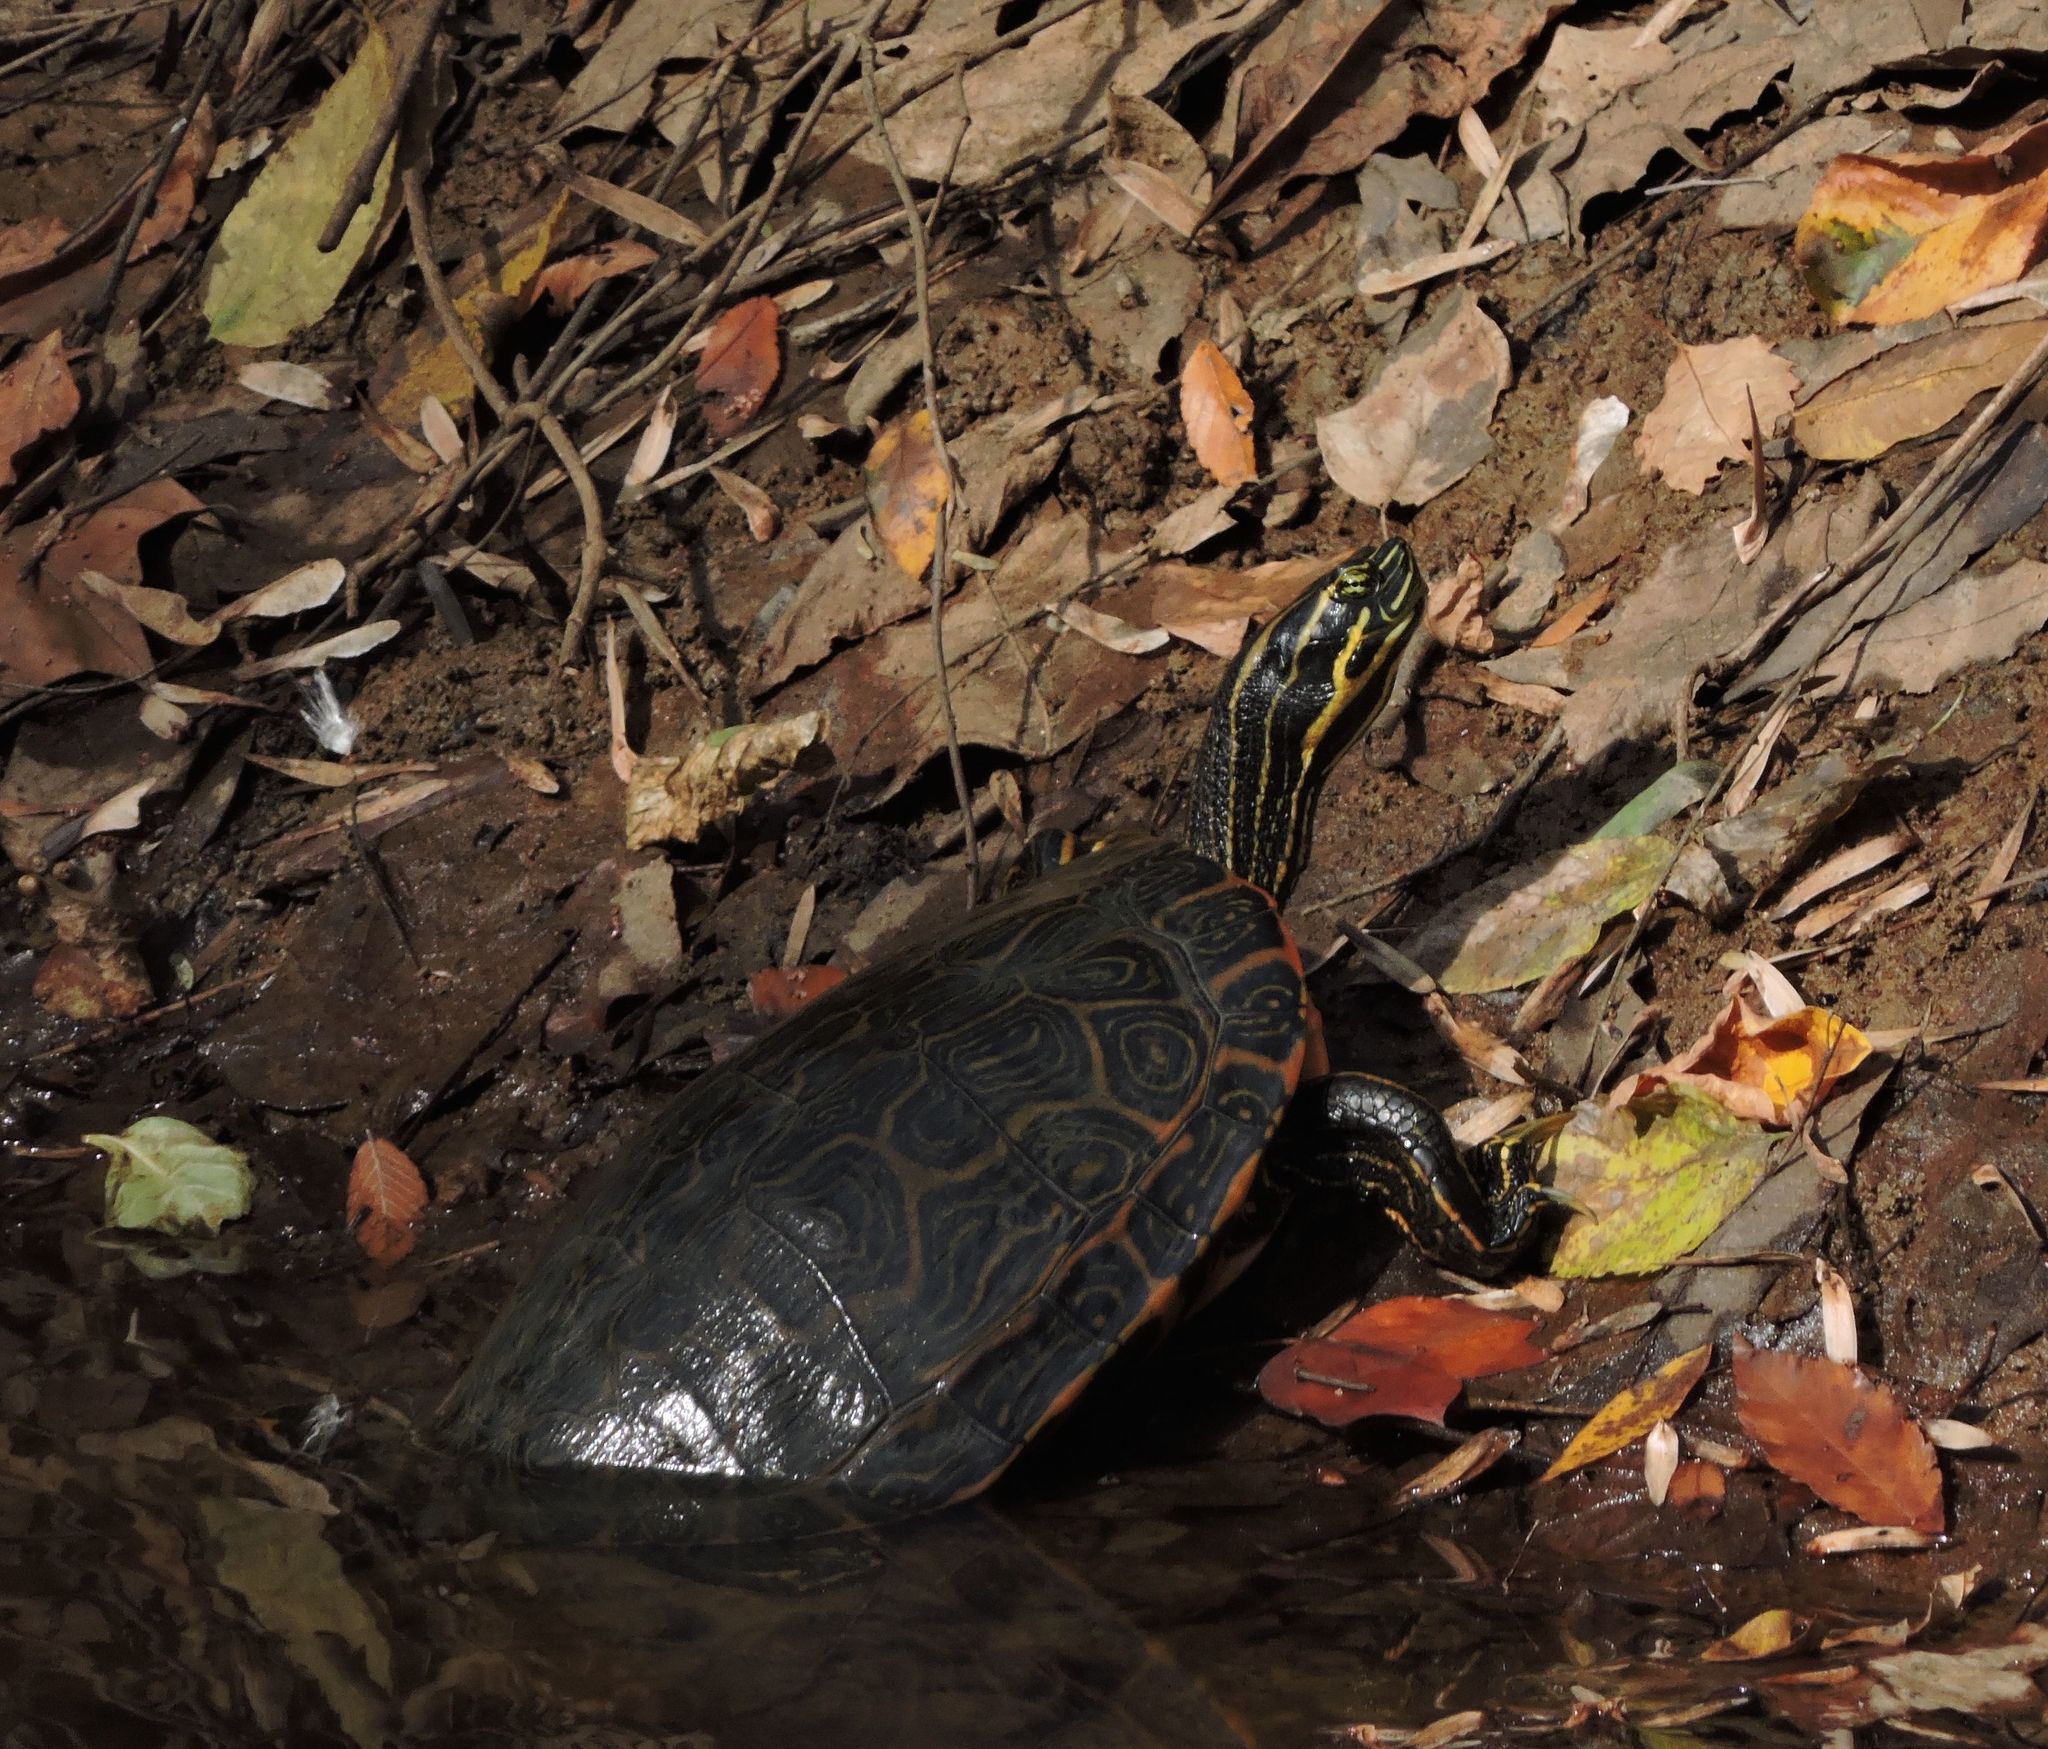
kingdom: Animalia
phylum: Chordata
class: Testudines
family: Emydidae
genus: Pseudemys
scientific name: Pseudemys concinna
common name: Eastern river cooter
